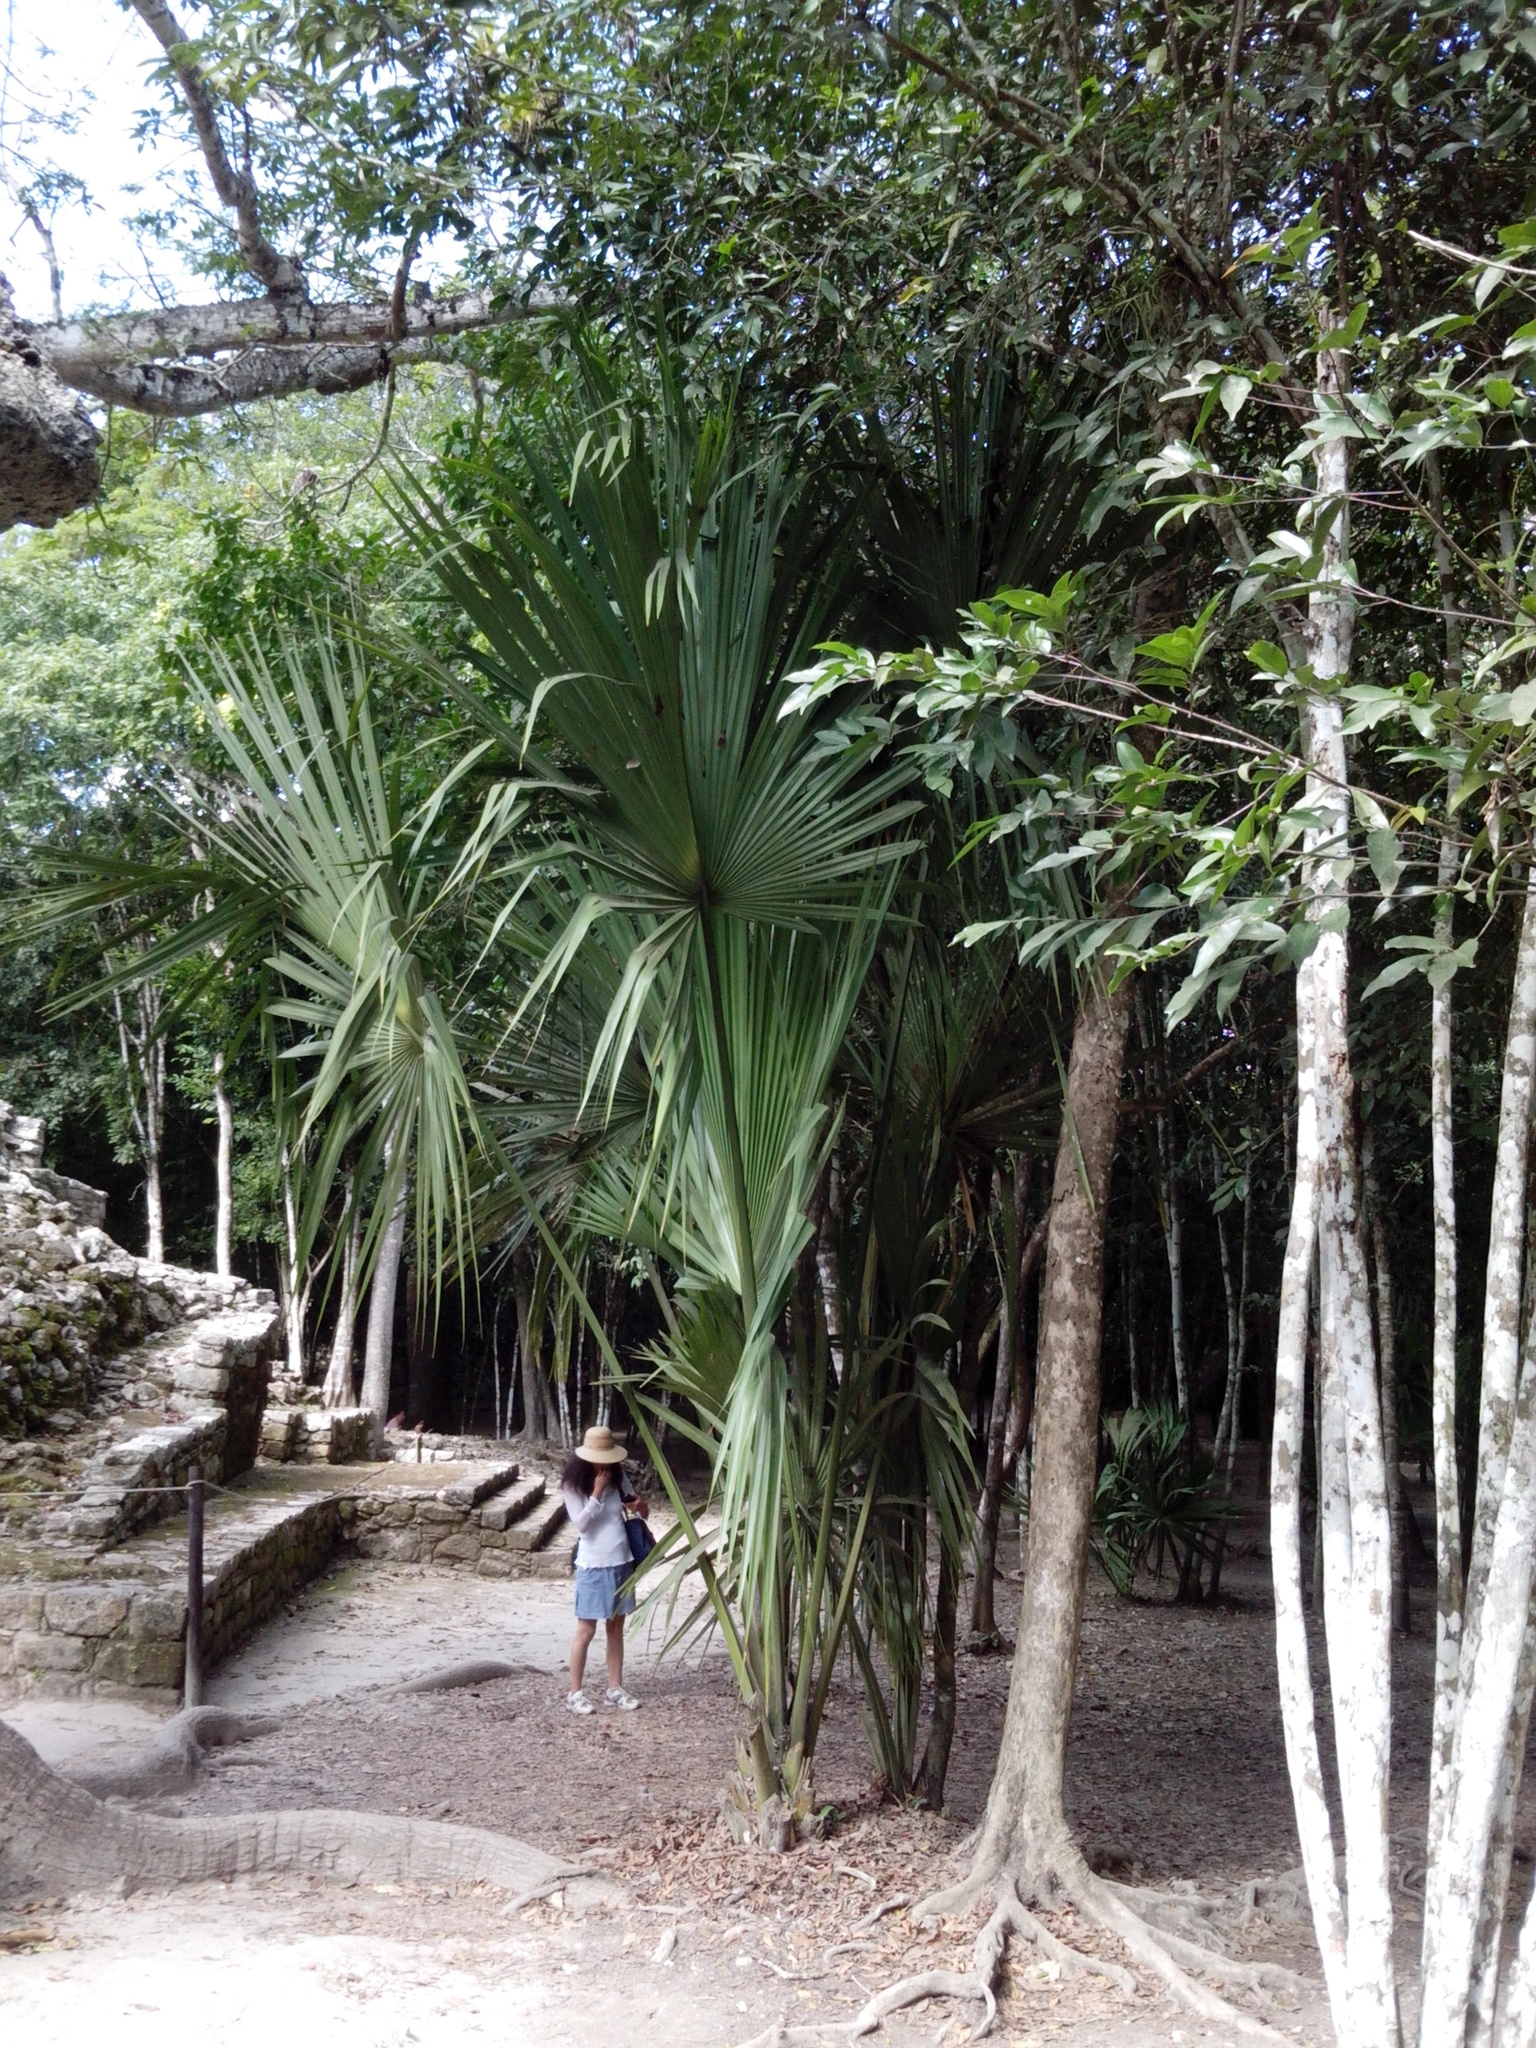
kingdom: Plantae
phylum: Tracheophyta
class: Liliopsida
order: Arecales
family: Arecaceae
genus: Sabal
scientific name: Sabal yapa
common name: Thatch palm
